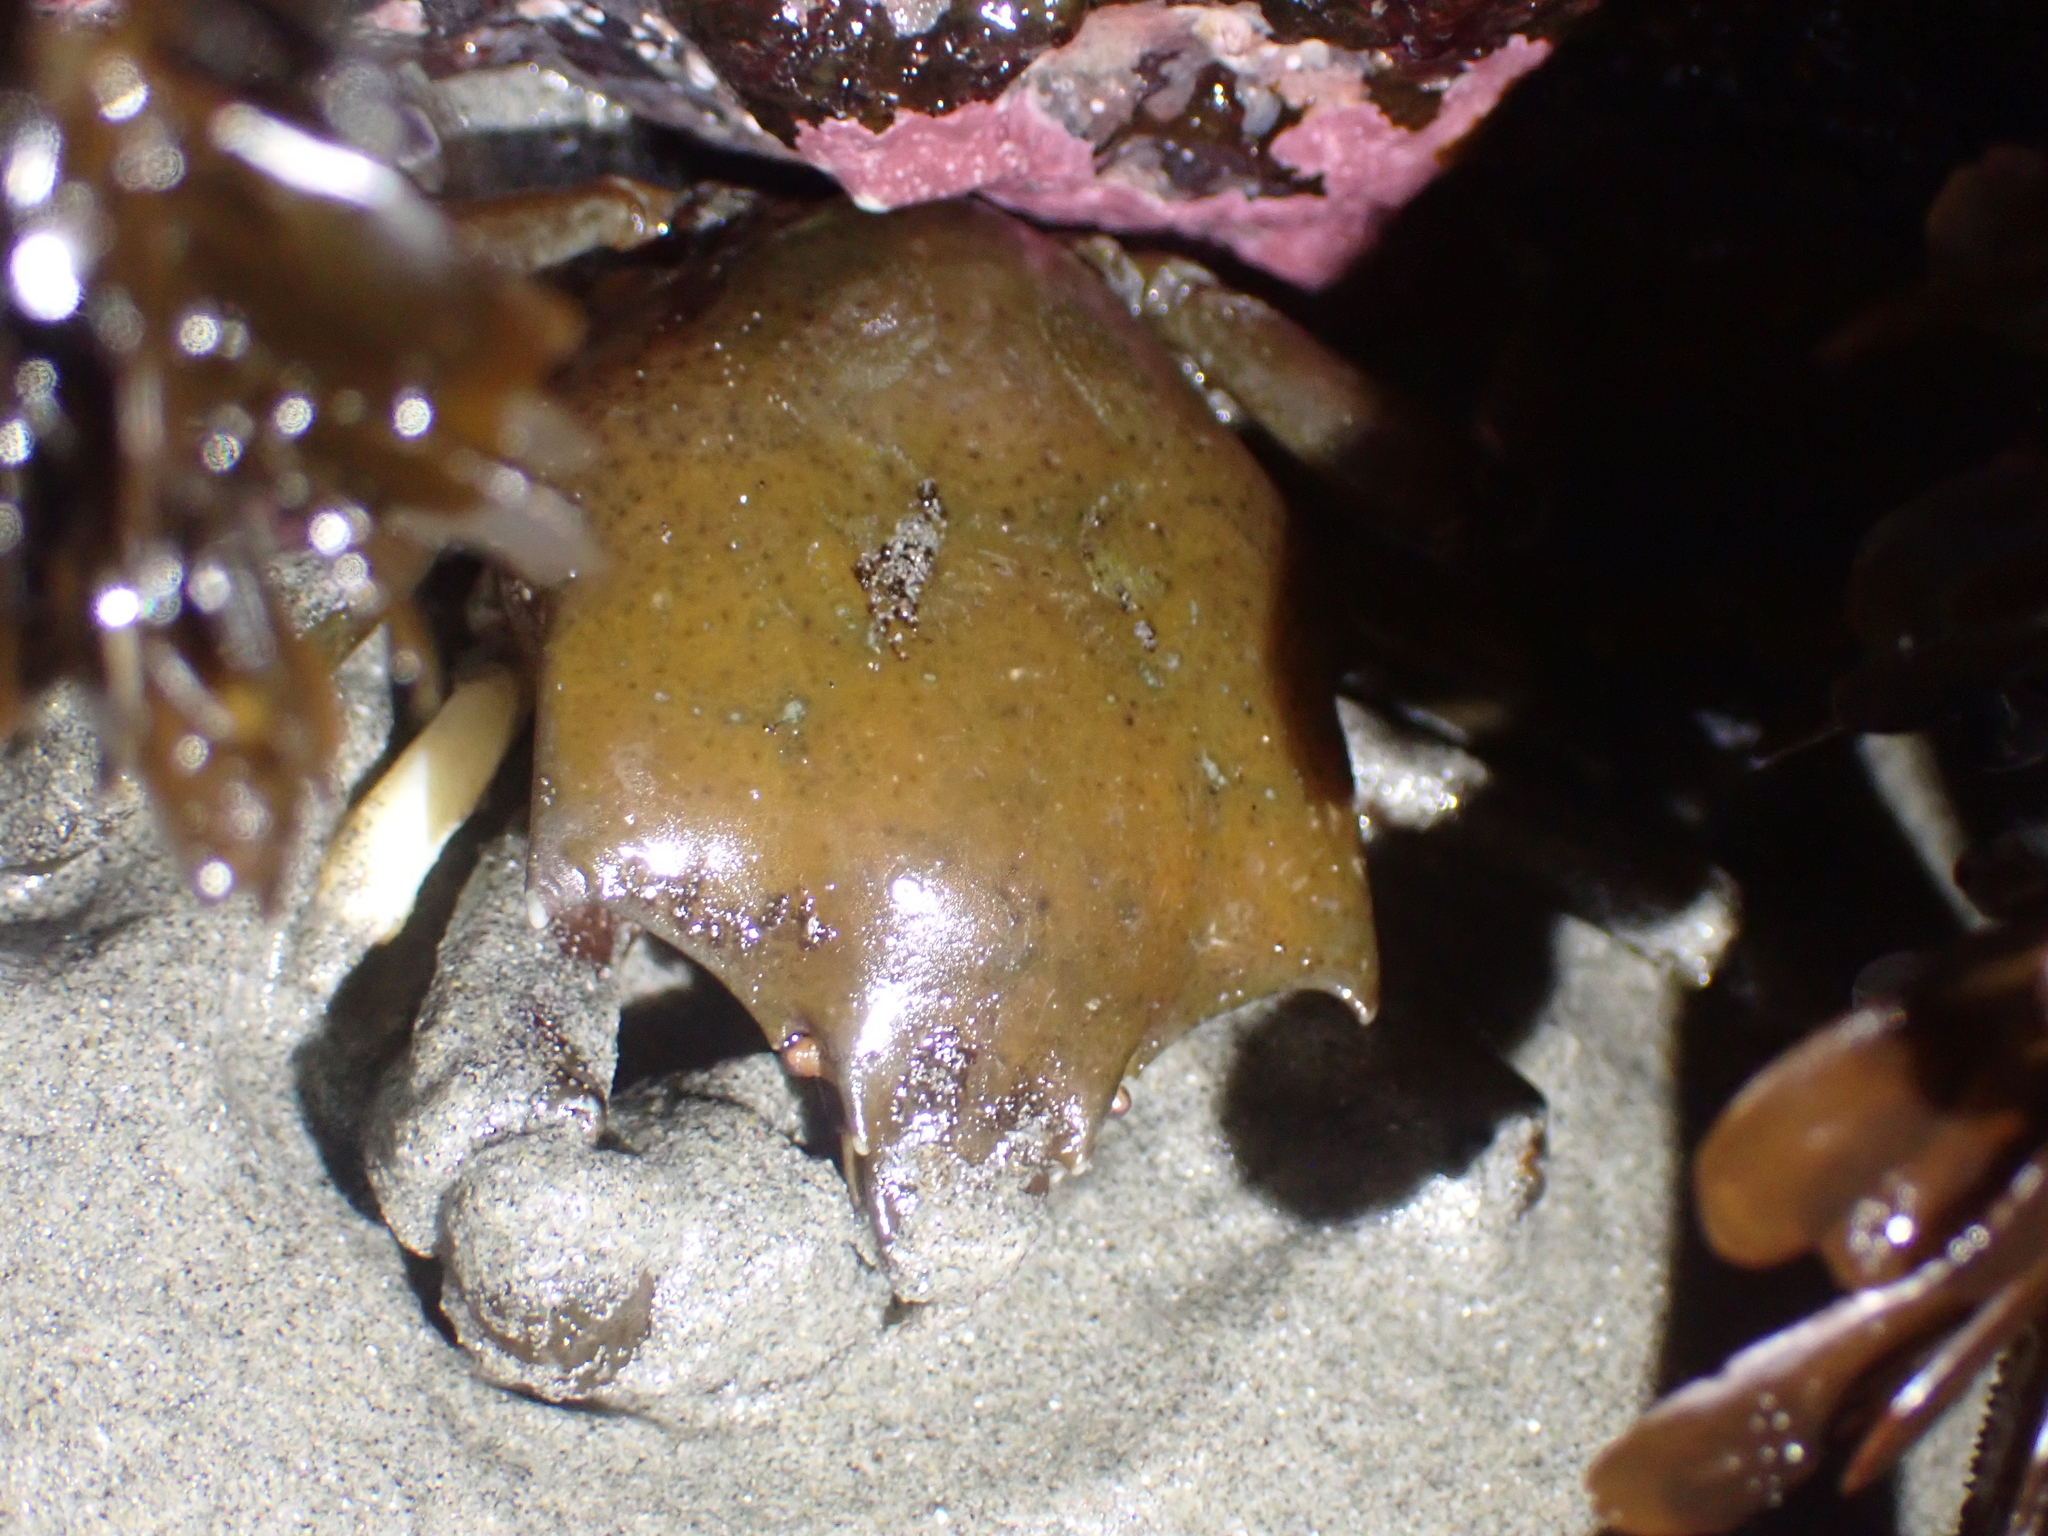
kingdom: Animalia
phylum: Arthropoda
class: Malacostraca
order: Decapoda
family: Epialtidae
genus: Pugettia
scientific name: Pugettia producta
